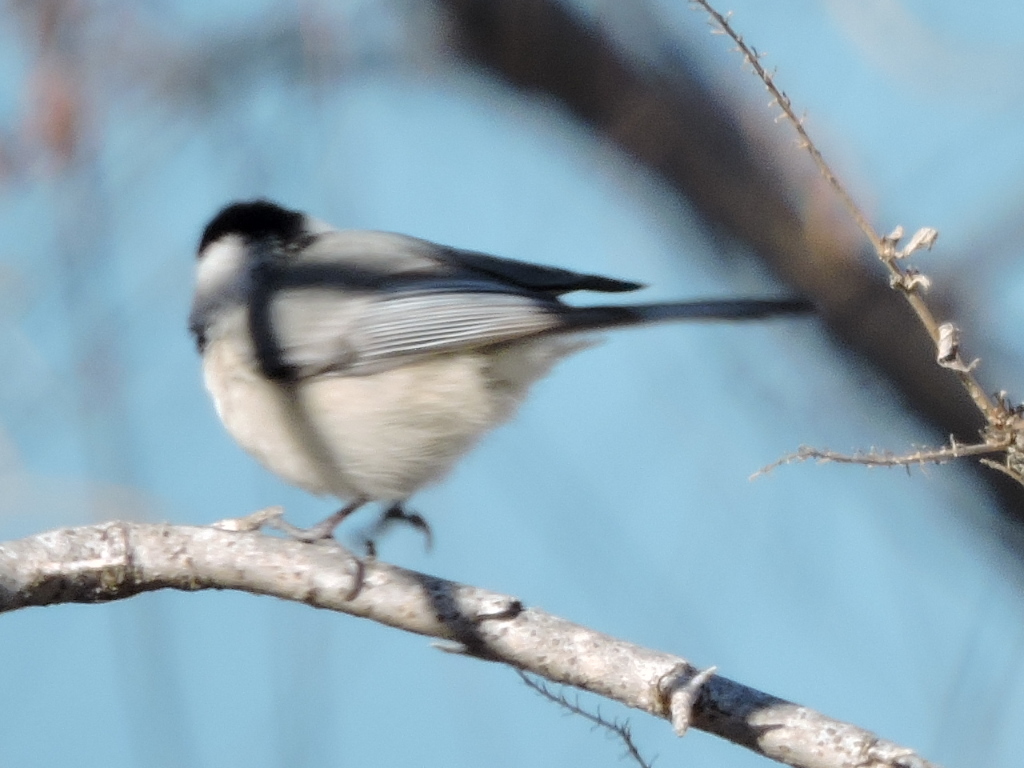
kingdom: Animalia
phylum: Chordata
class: Aves
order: Passeriformes
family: Paridae
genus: Poecile
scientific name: Poecile carolinensis
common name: Carolina chickadee
